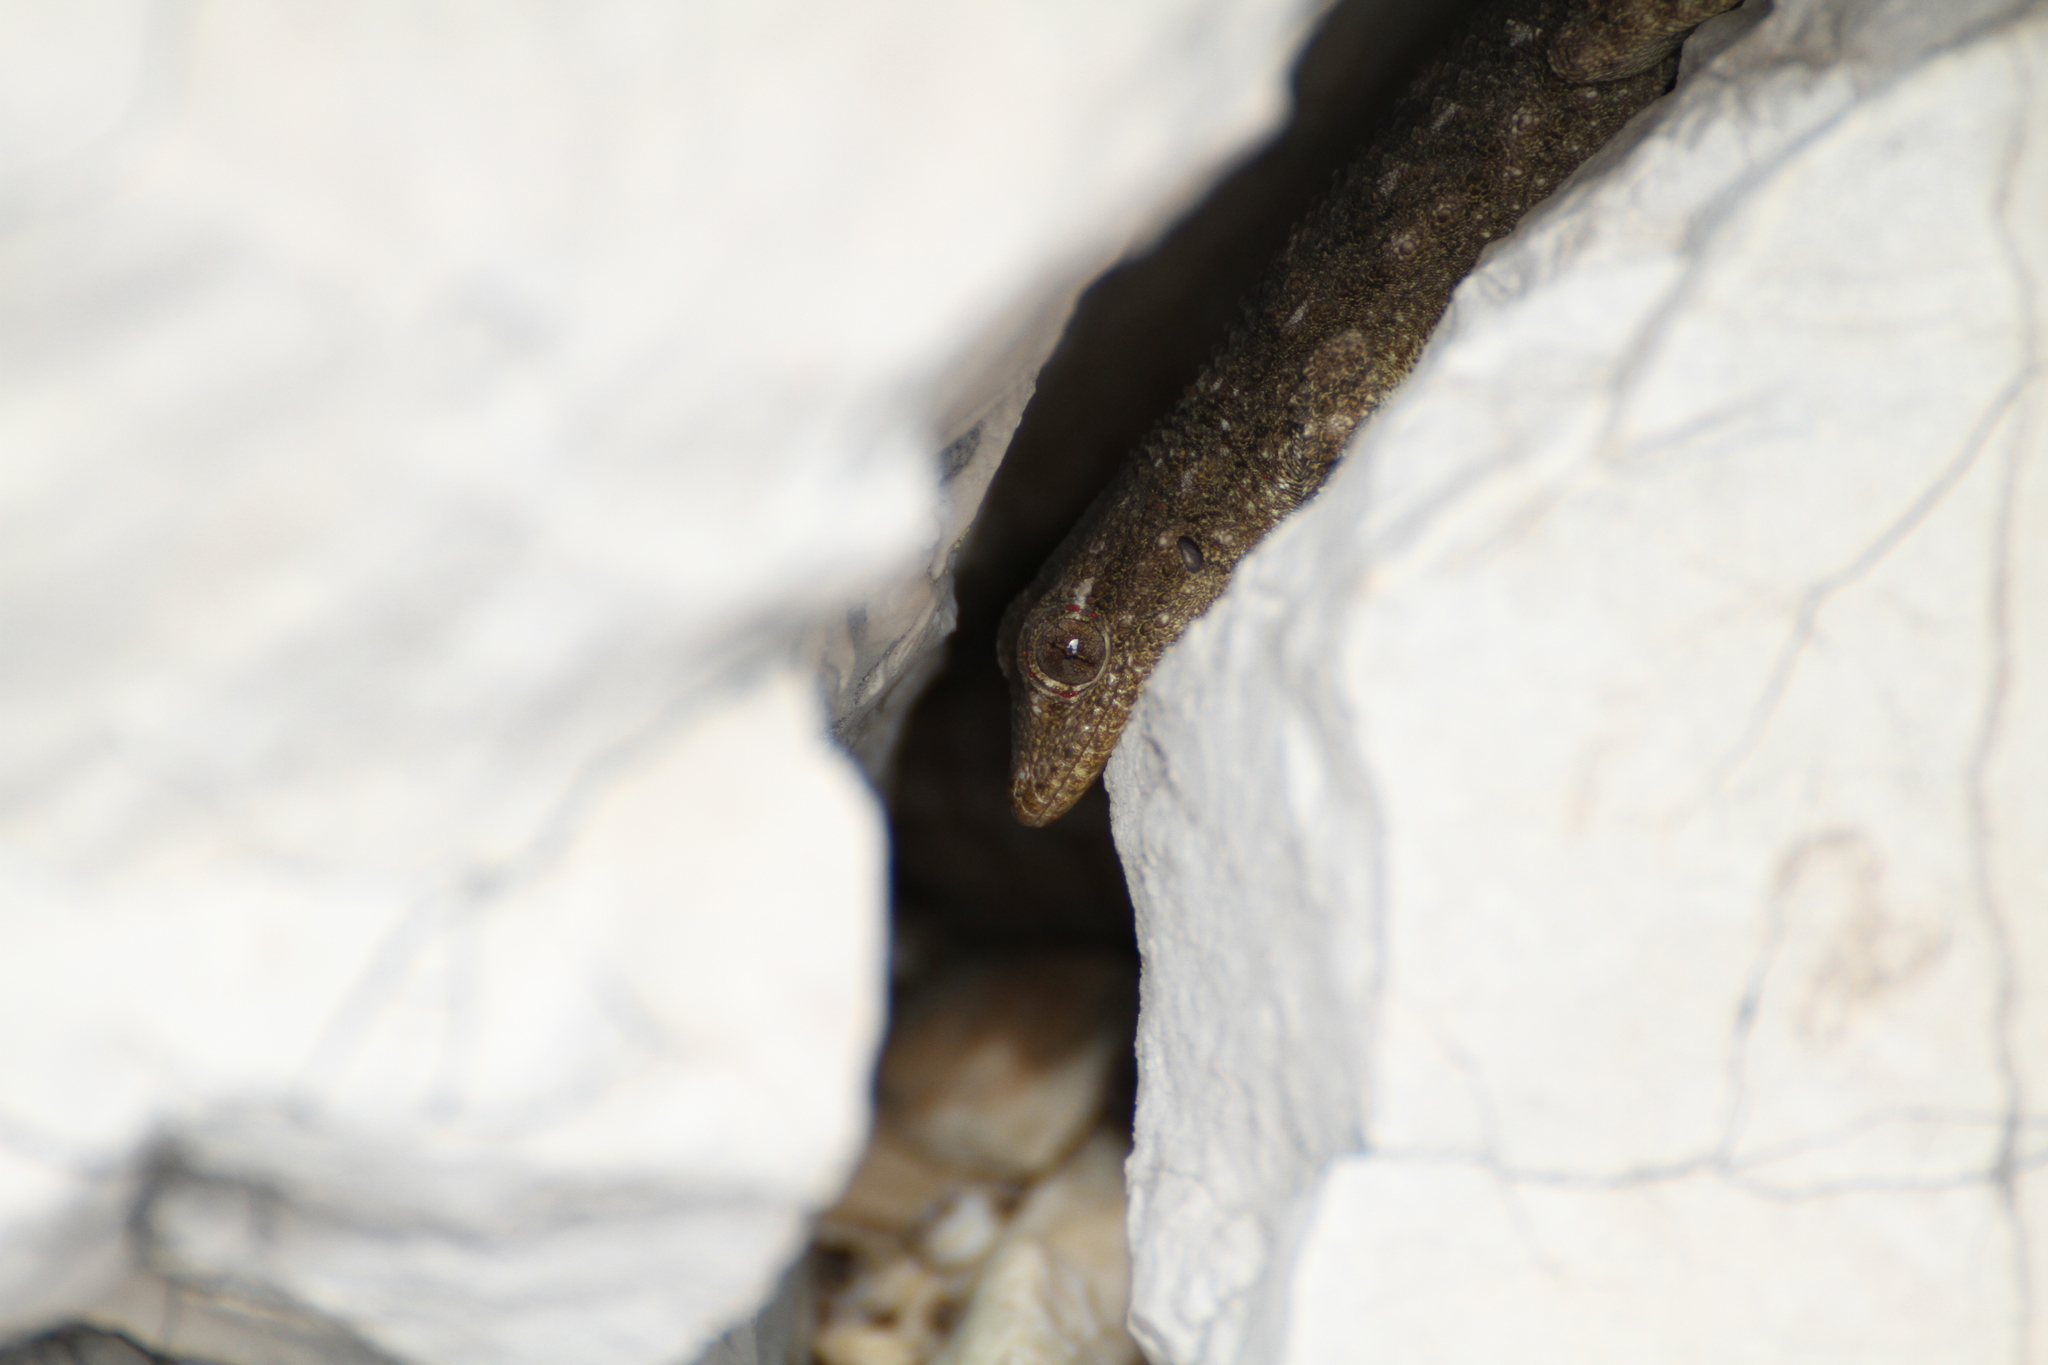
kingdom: Animalia
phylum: Chordata
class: Squamata
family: Phyllodactylidae
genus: Tarentola
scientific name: Tarentola mauritanica
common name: Moorish gecko
